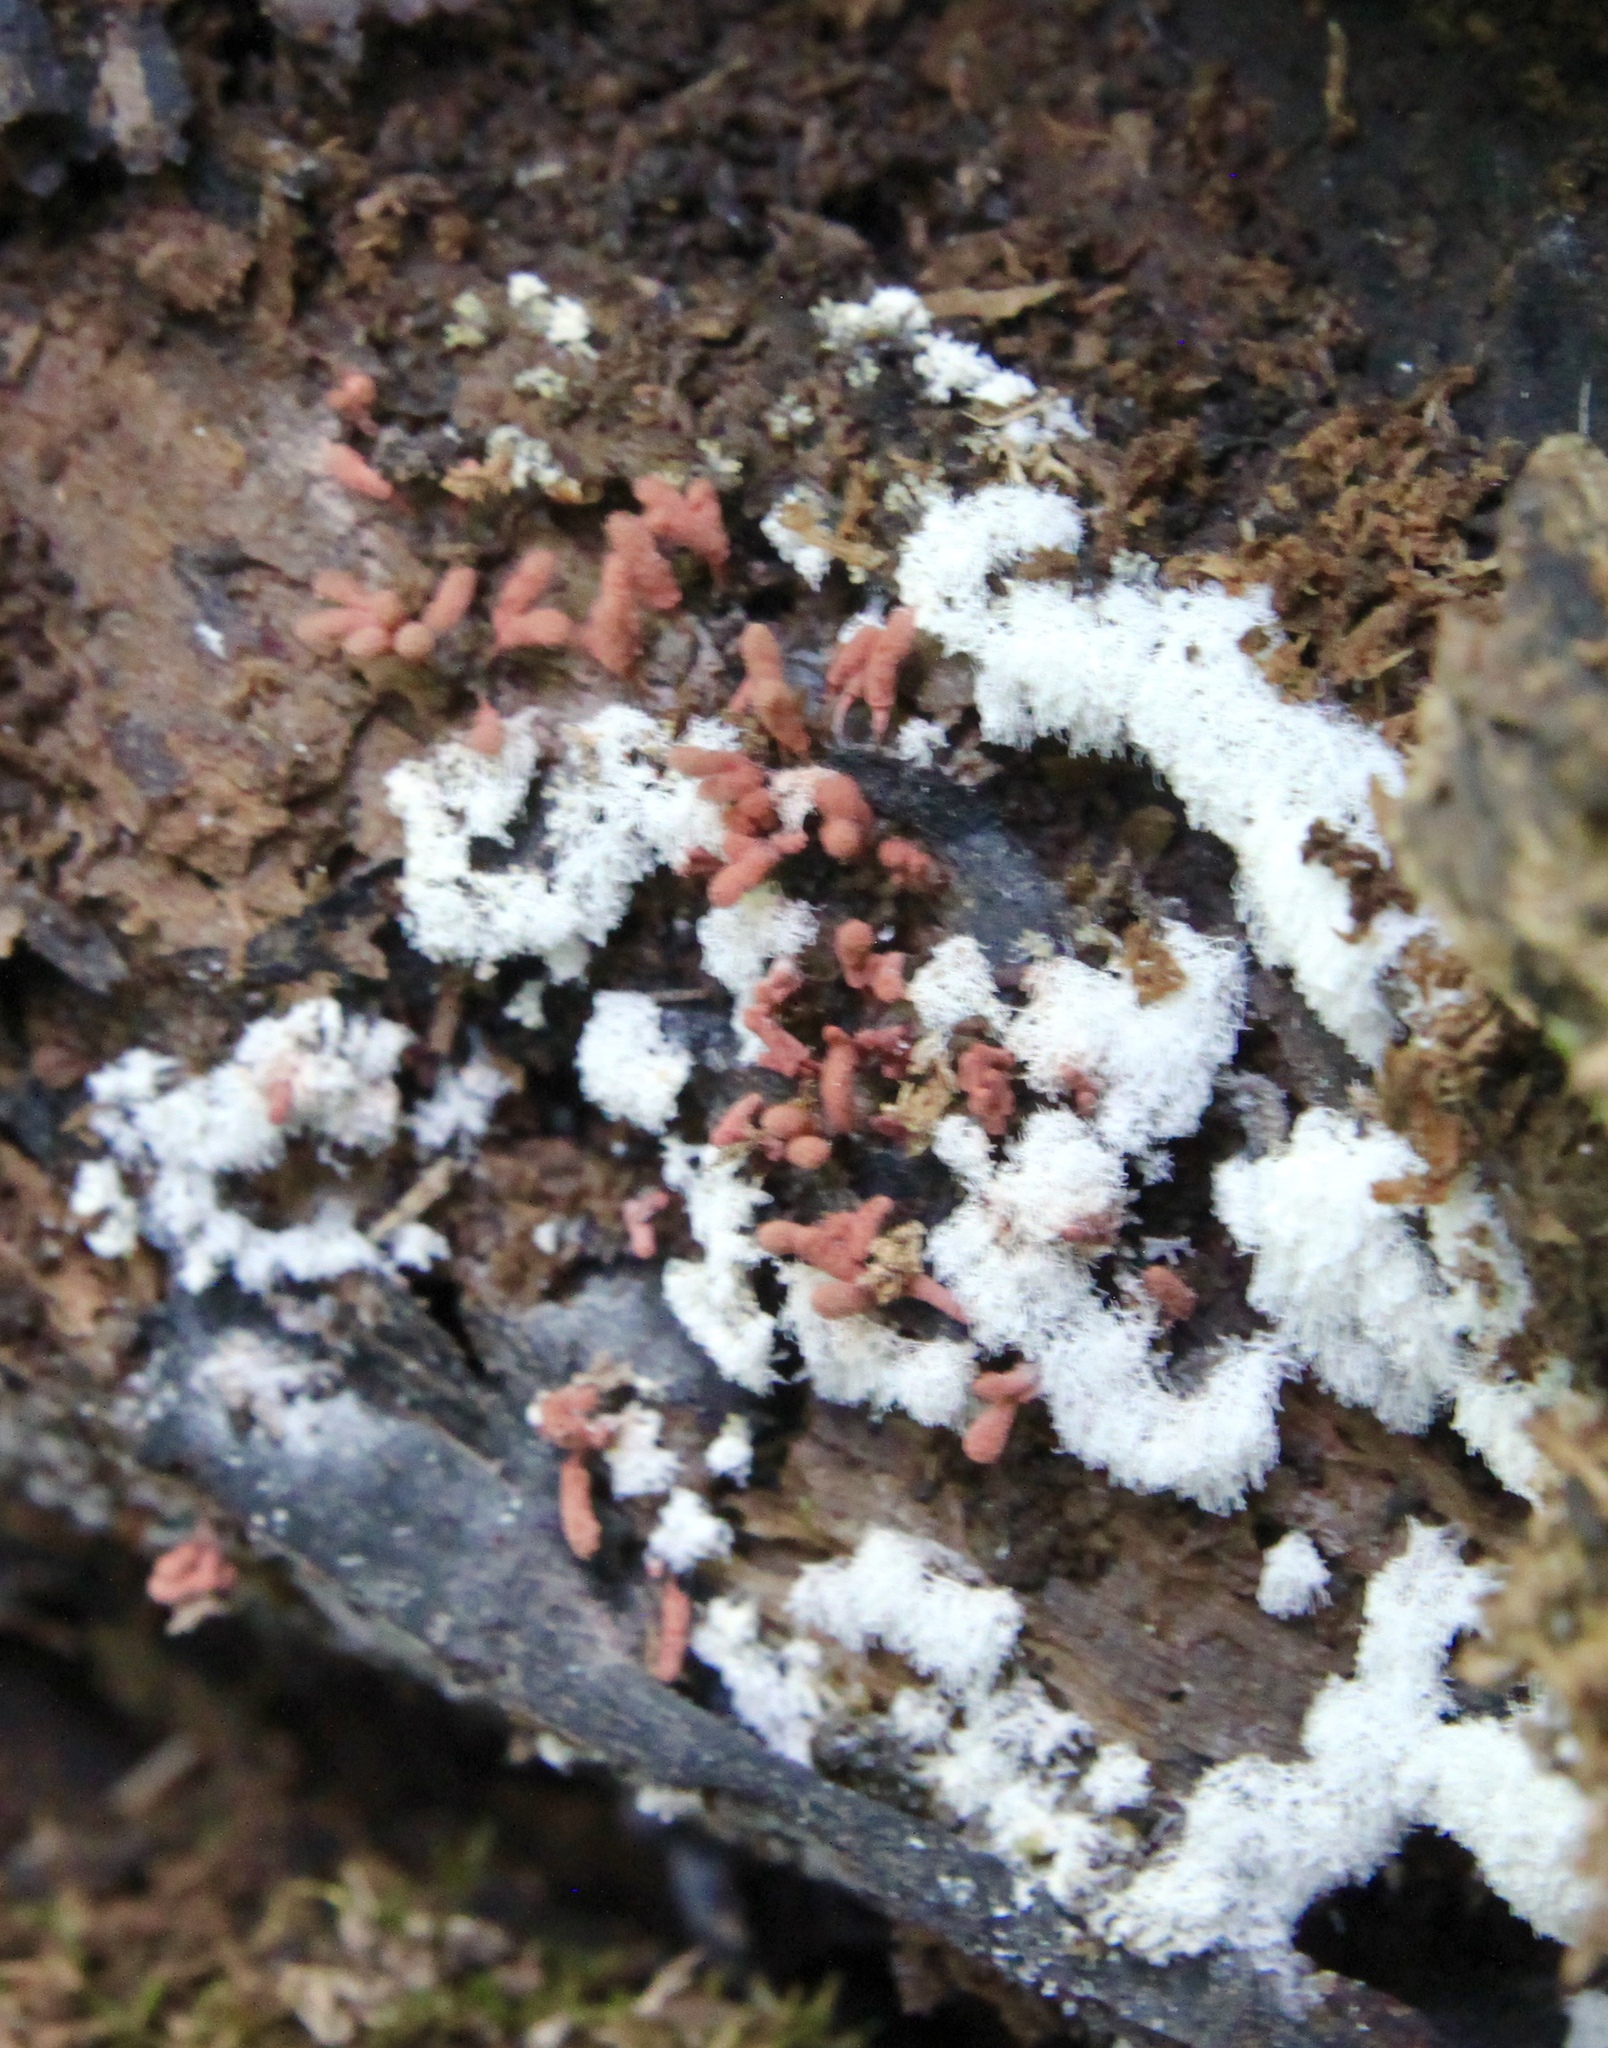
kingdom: Protozoa
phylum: Mycetozoa
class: Myxomycetes
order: Trichiales
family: Arcyriaceae
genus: Arcyria
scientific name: Arcyria denudata
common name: Carnival candy slime mold
